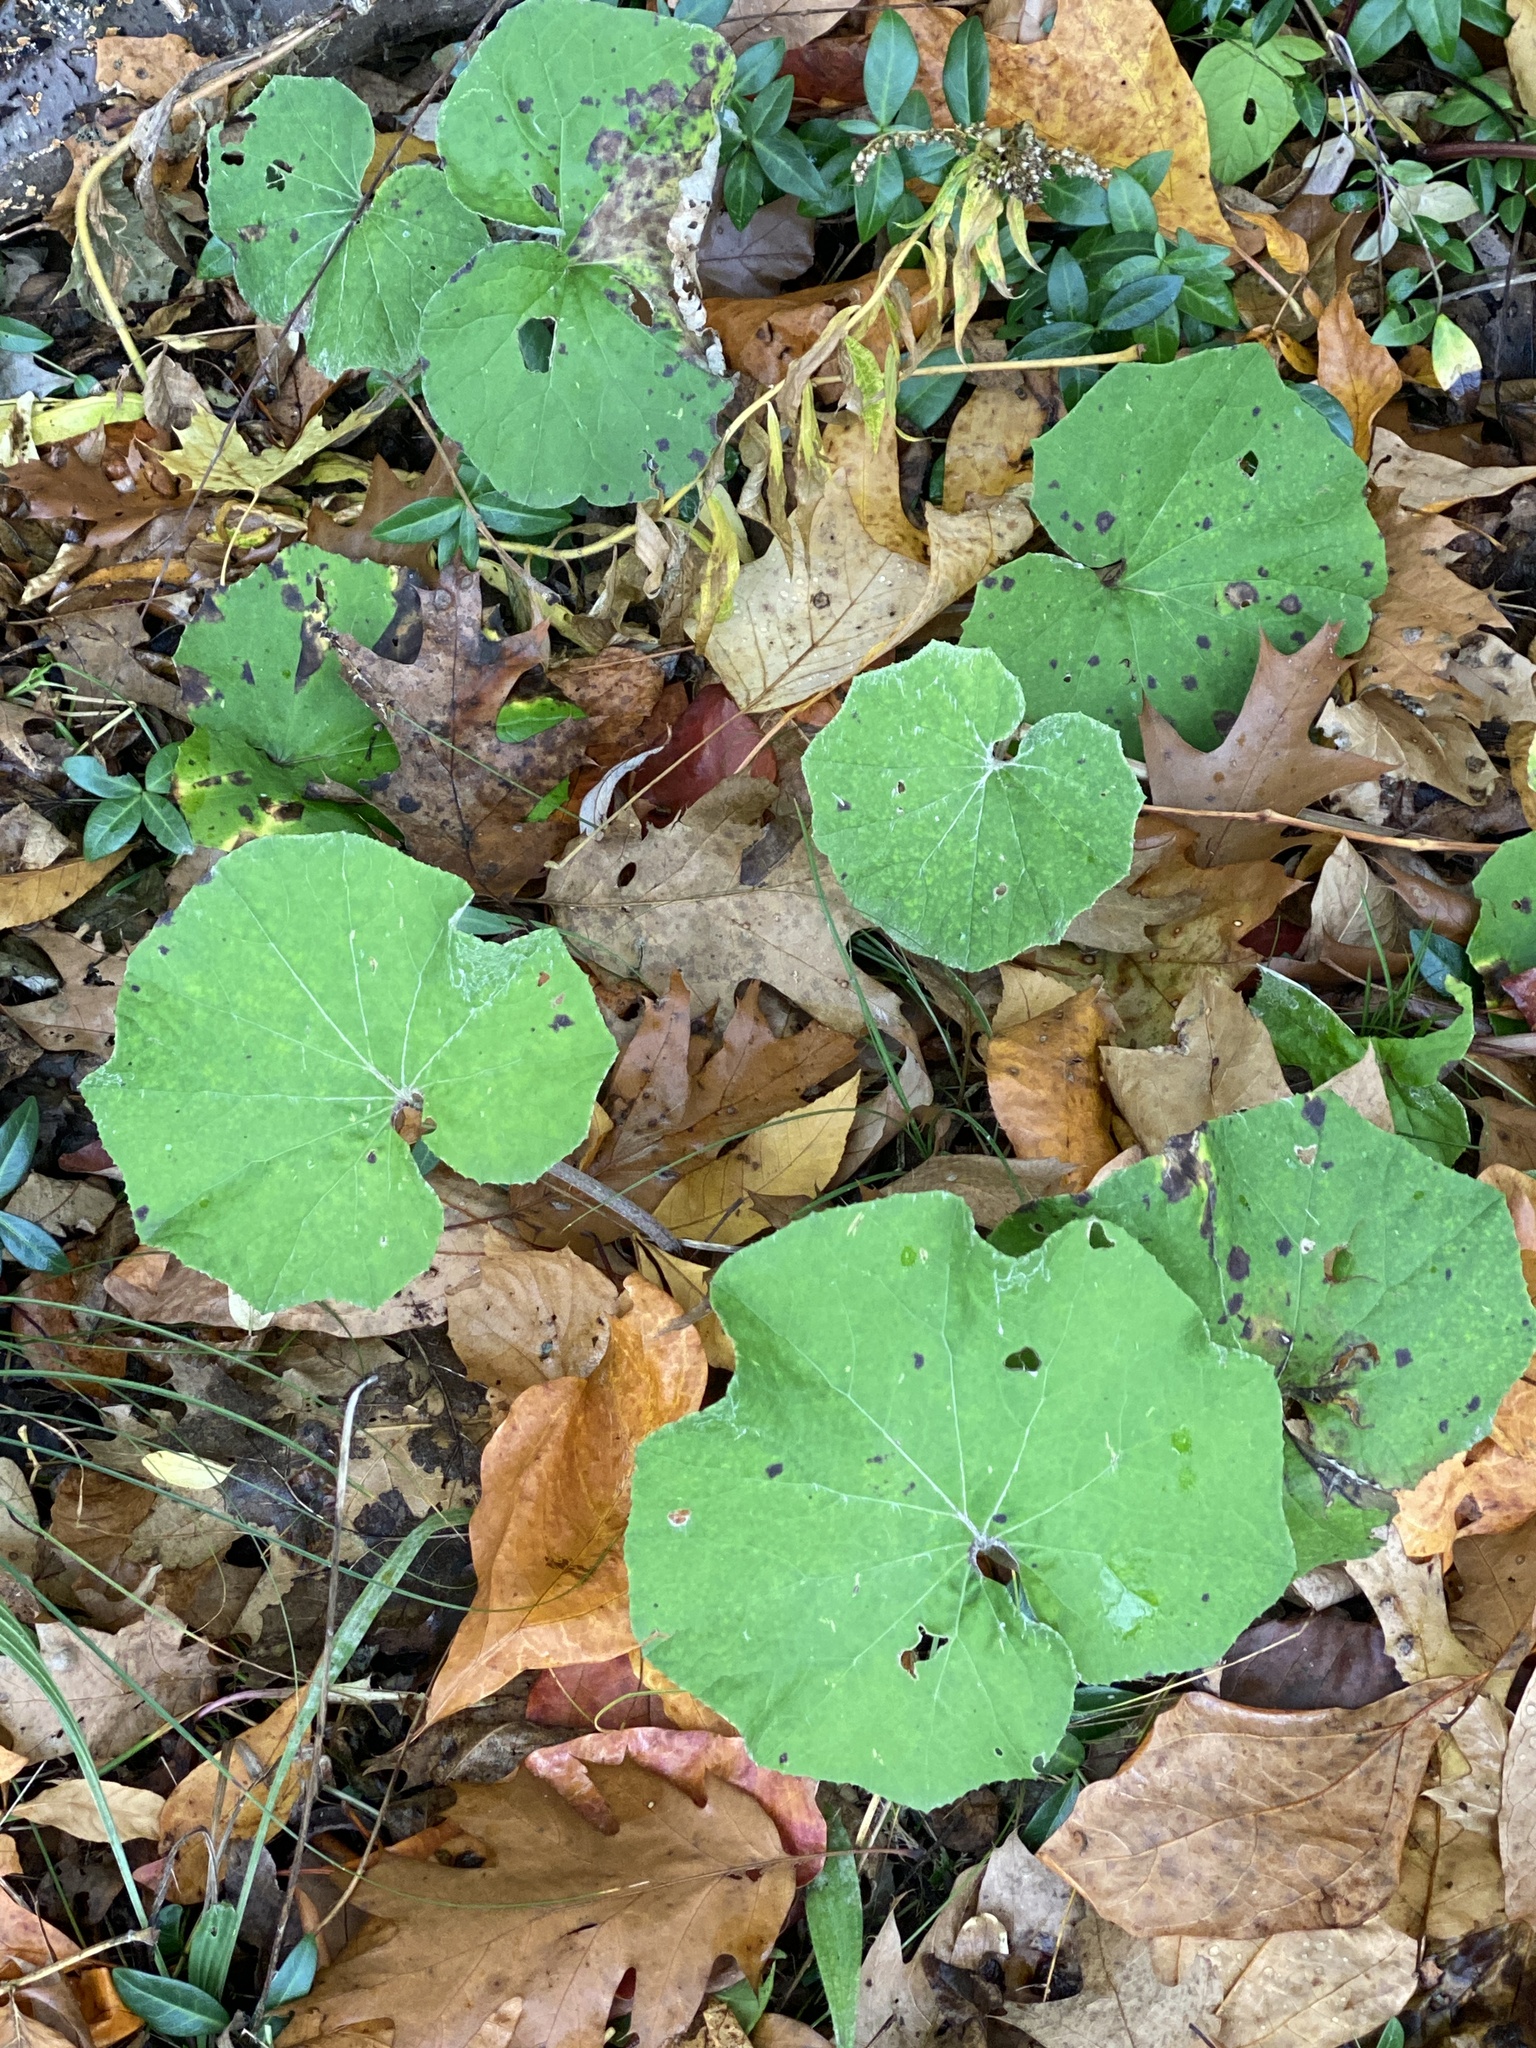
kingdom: Plantae
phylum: Tracheophyta
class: Magnoliopsida
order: Asterales
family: Asteraceae
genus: Tussilago
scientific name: Tussilago farfara
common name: Coltsfoot
